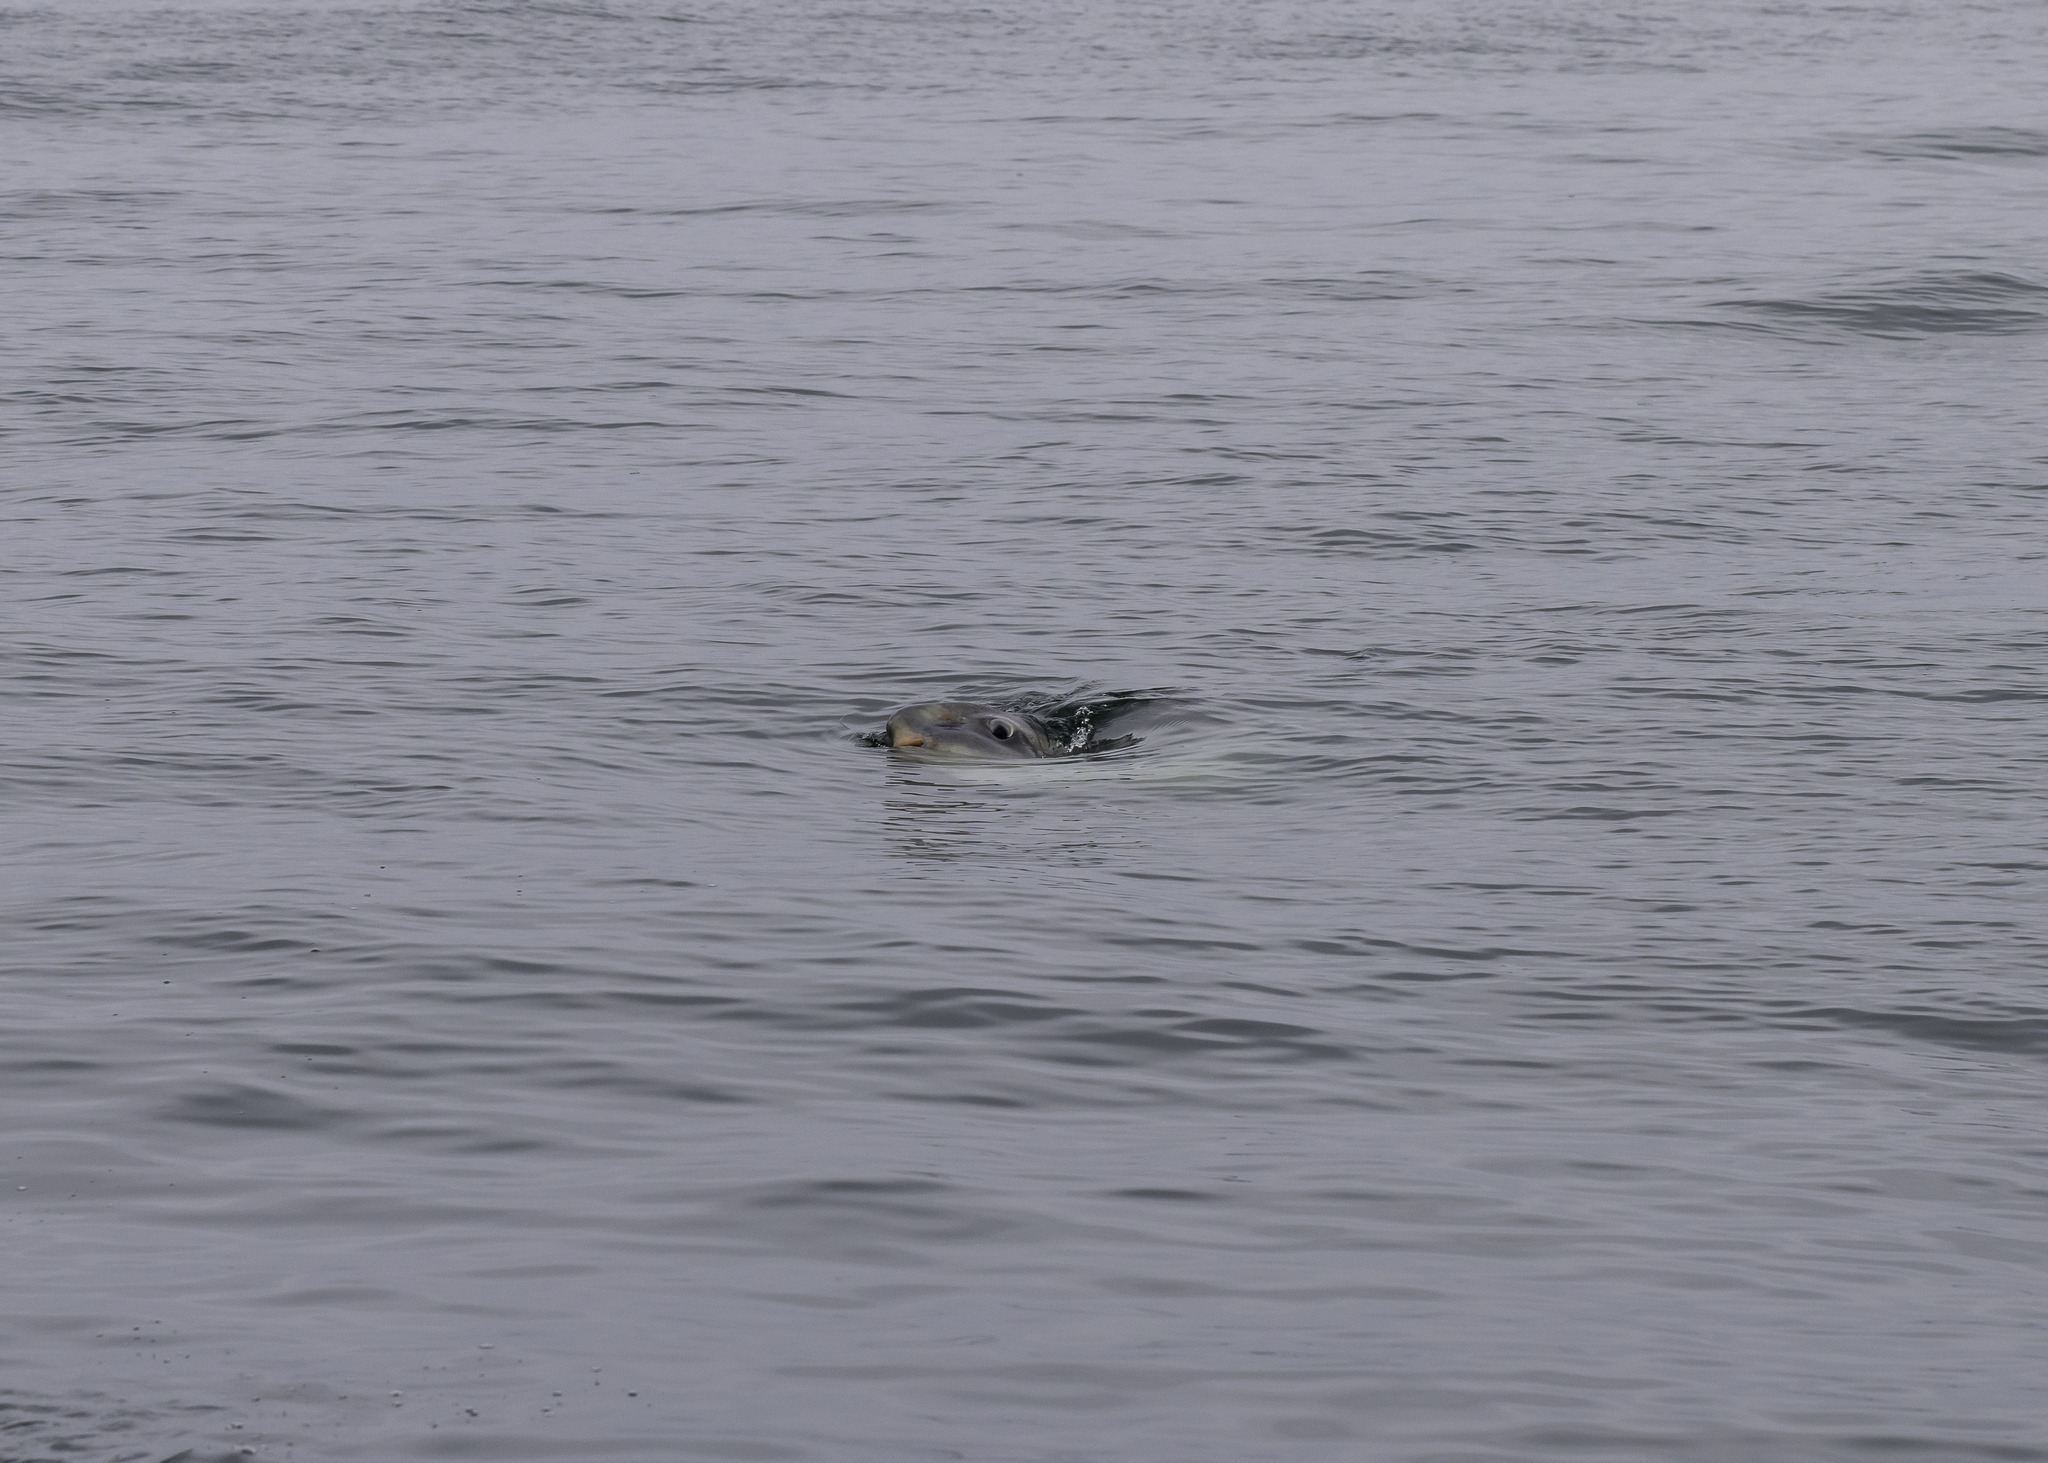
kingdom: Animalia
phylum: Chordata
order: Tetraodontiformes
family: Molidae
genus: Mola
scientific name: Mola mola
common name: Ocean sunfish
